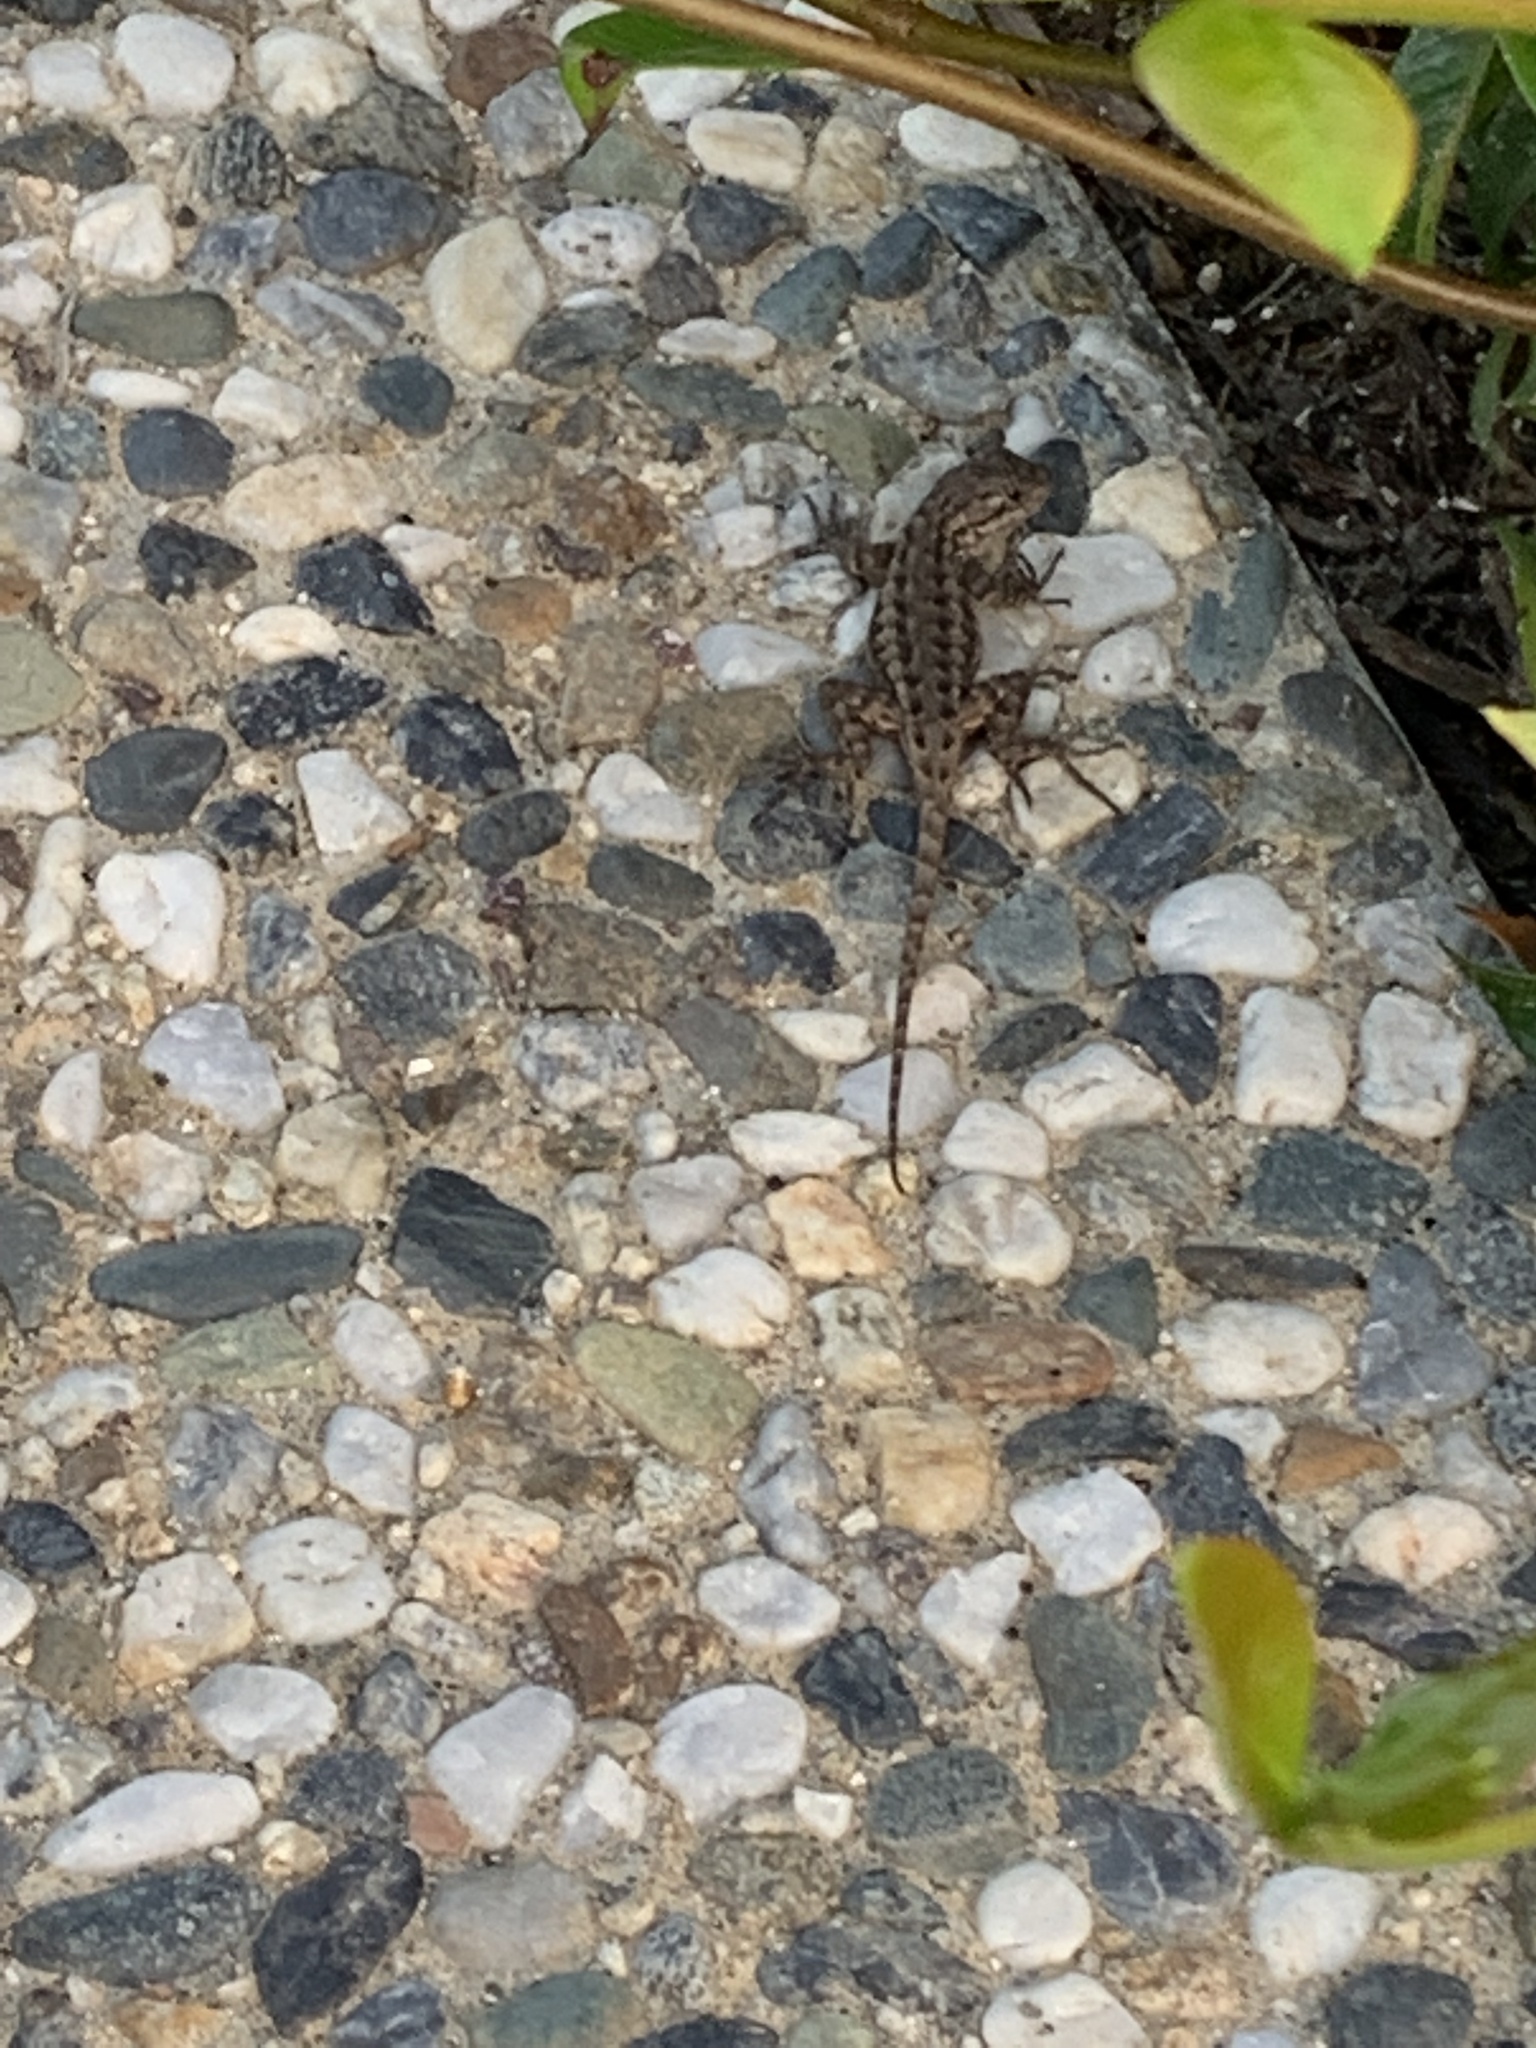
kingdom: Animalia
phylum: Chordata
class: Squamata
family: Phrynosomatidae
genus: Sceloporus
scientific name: Sceloporus occidentalis
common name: Western fence lizard
